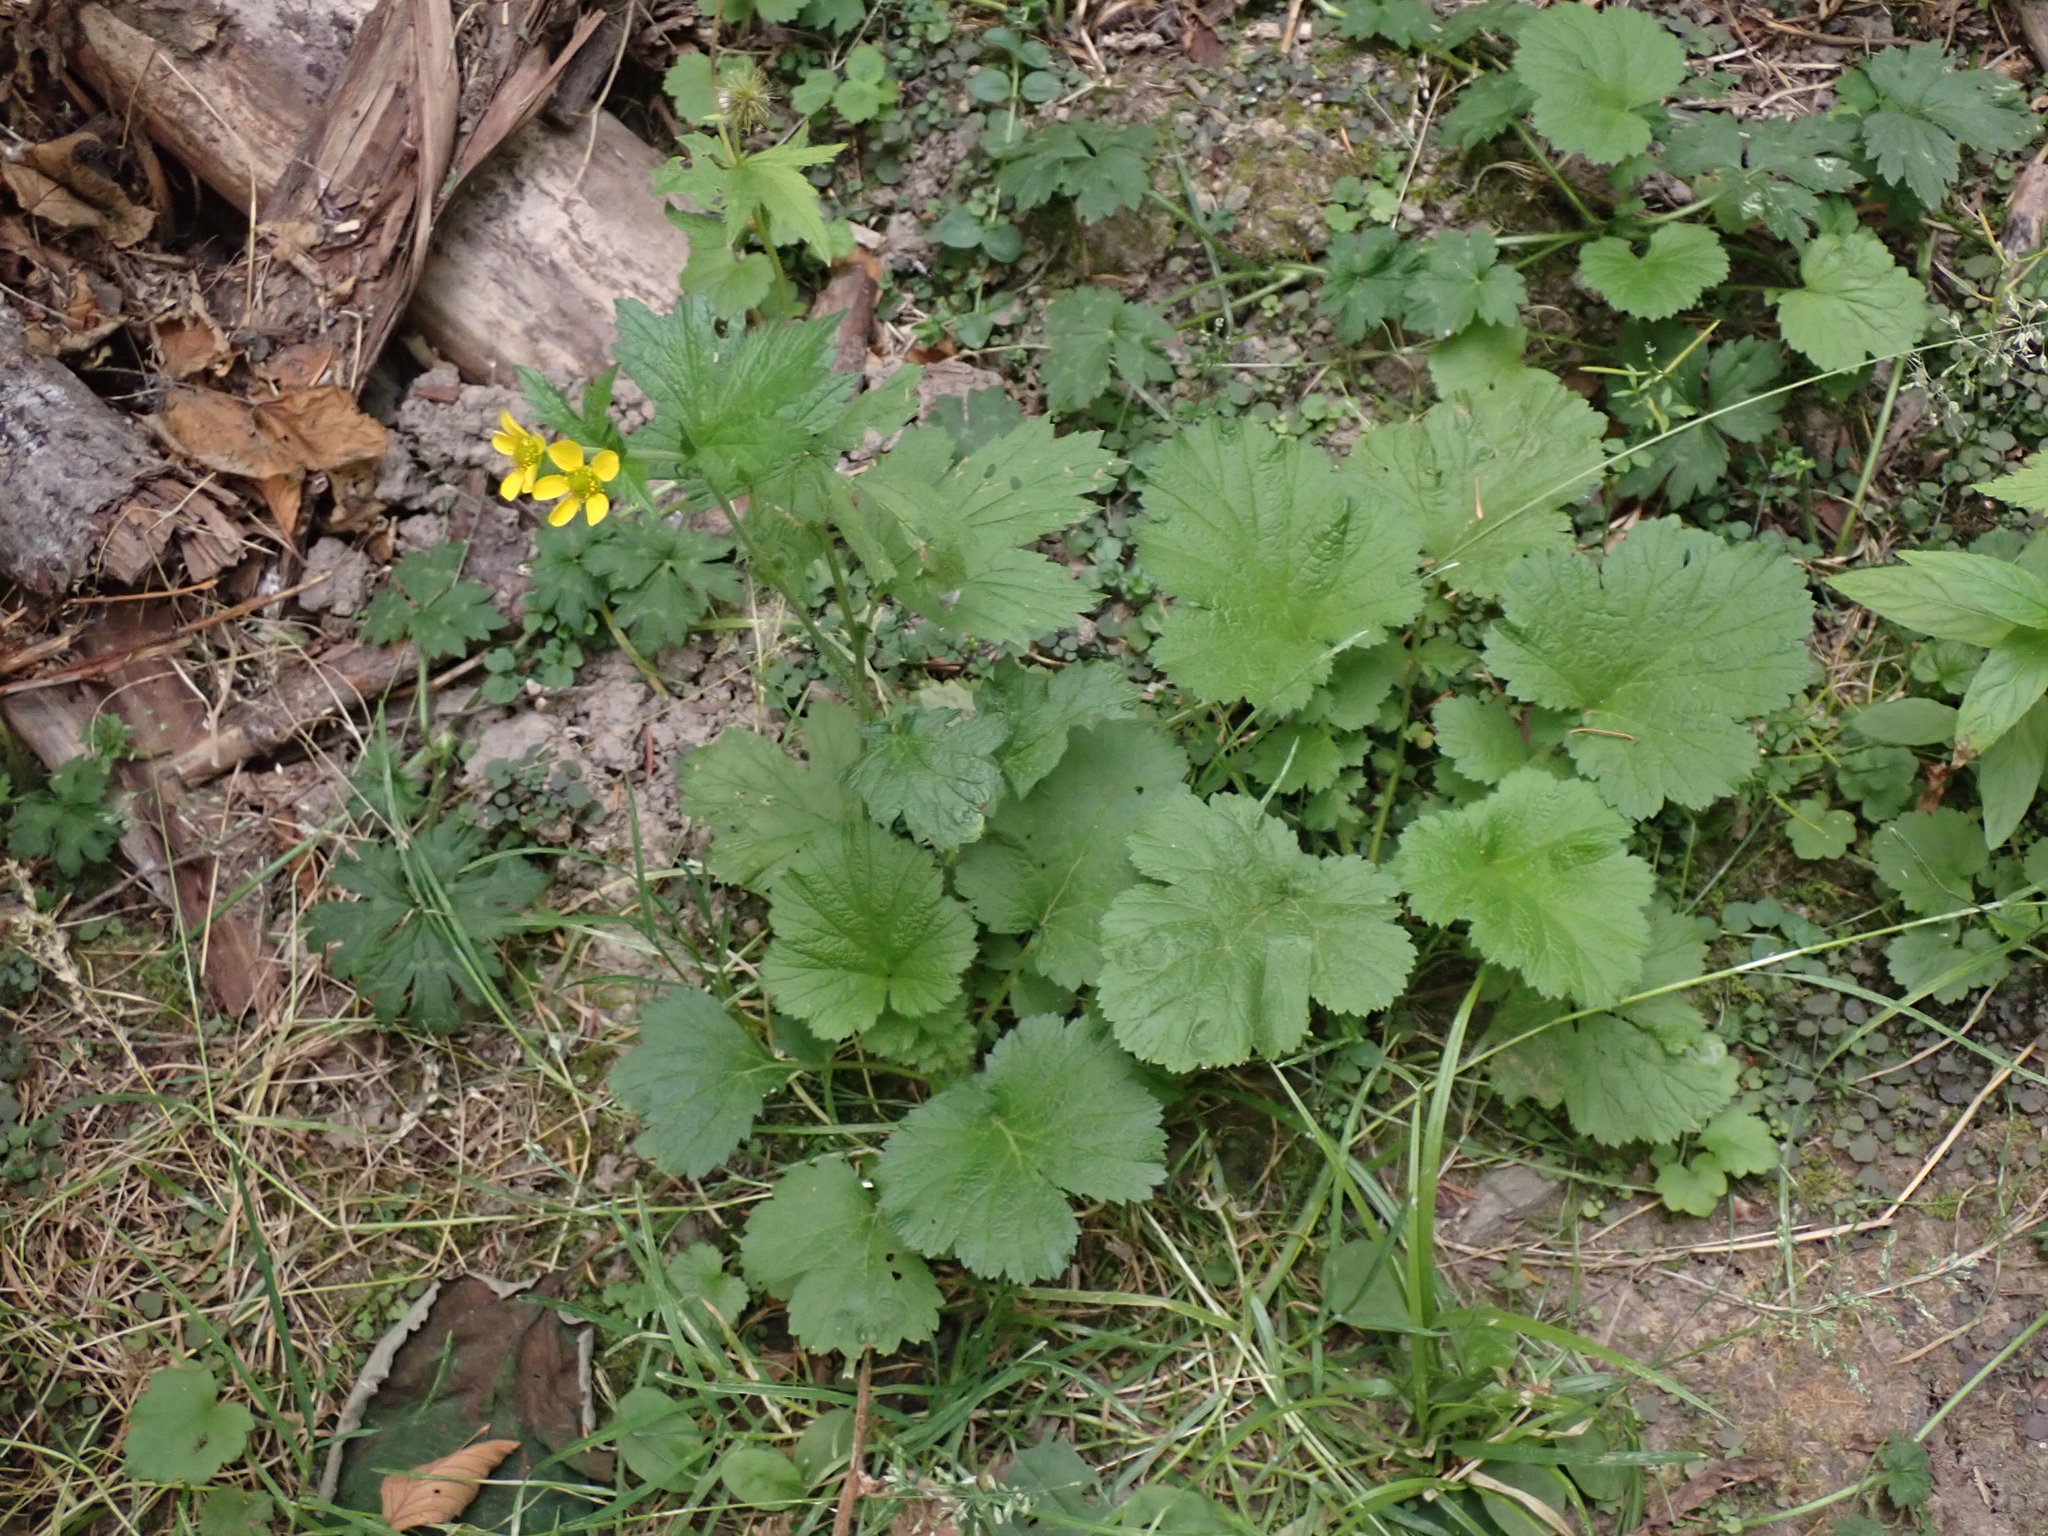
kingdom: Plantae
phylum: Tracheophyta
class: Magnoliopsida
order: Rosales
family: Rosaceae
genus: Geum
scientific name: Geum macrophyllum
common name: Large-leaved avens
